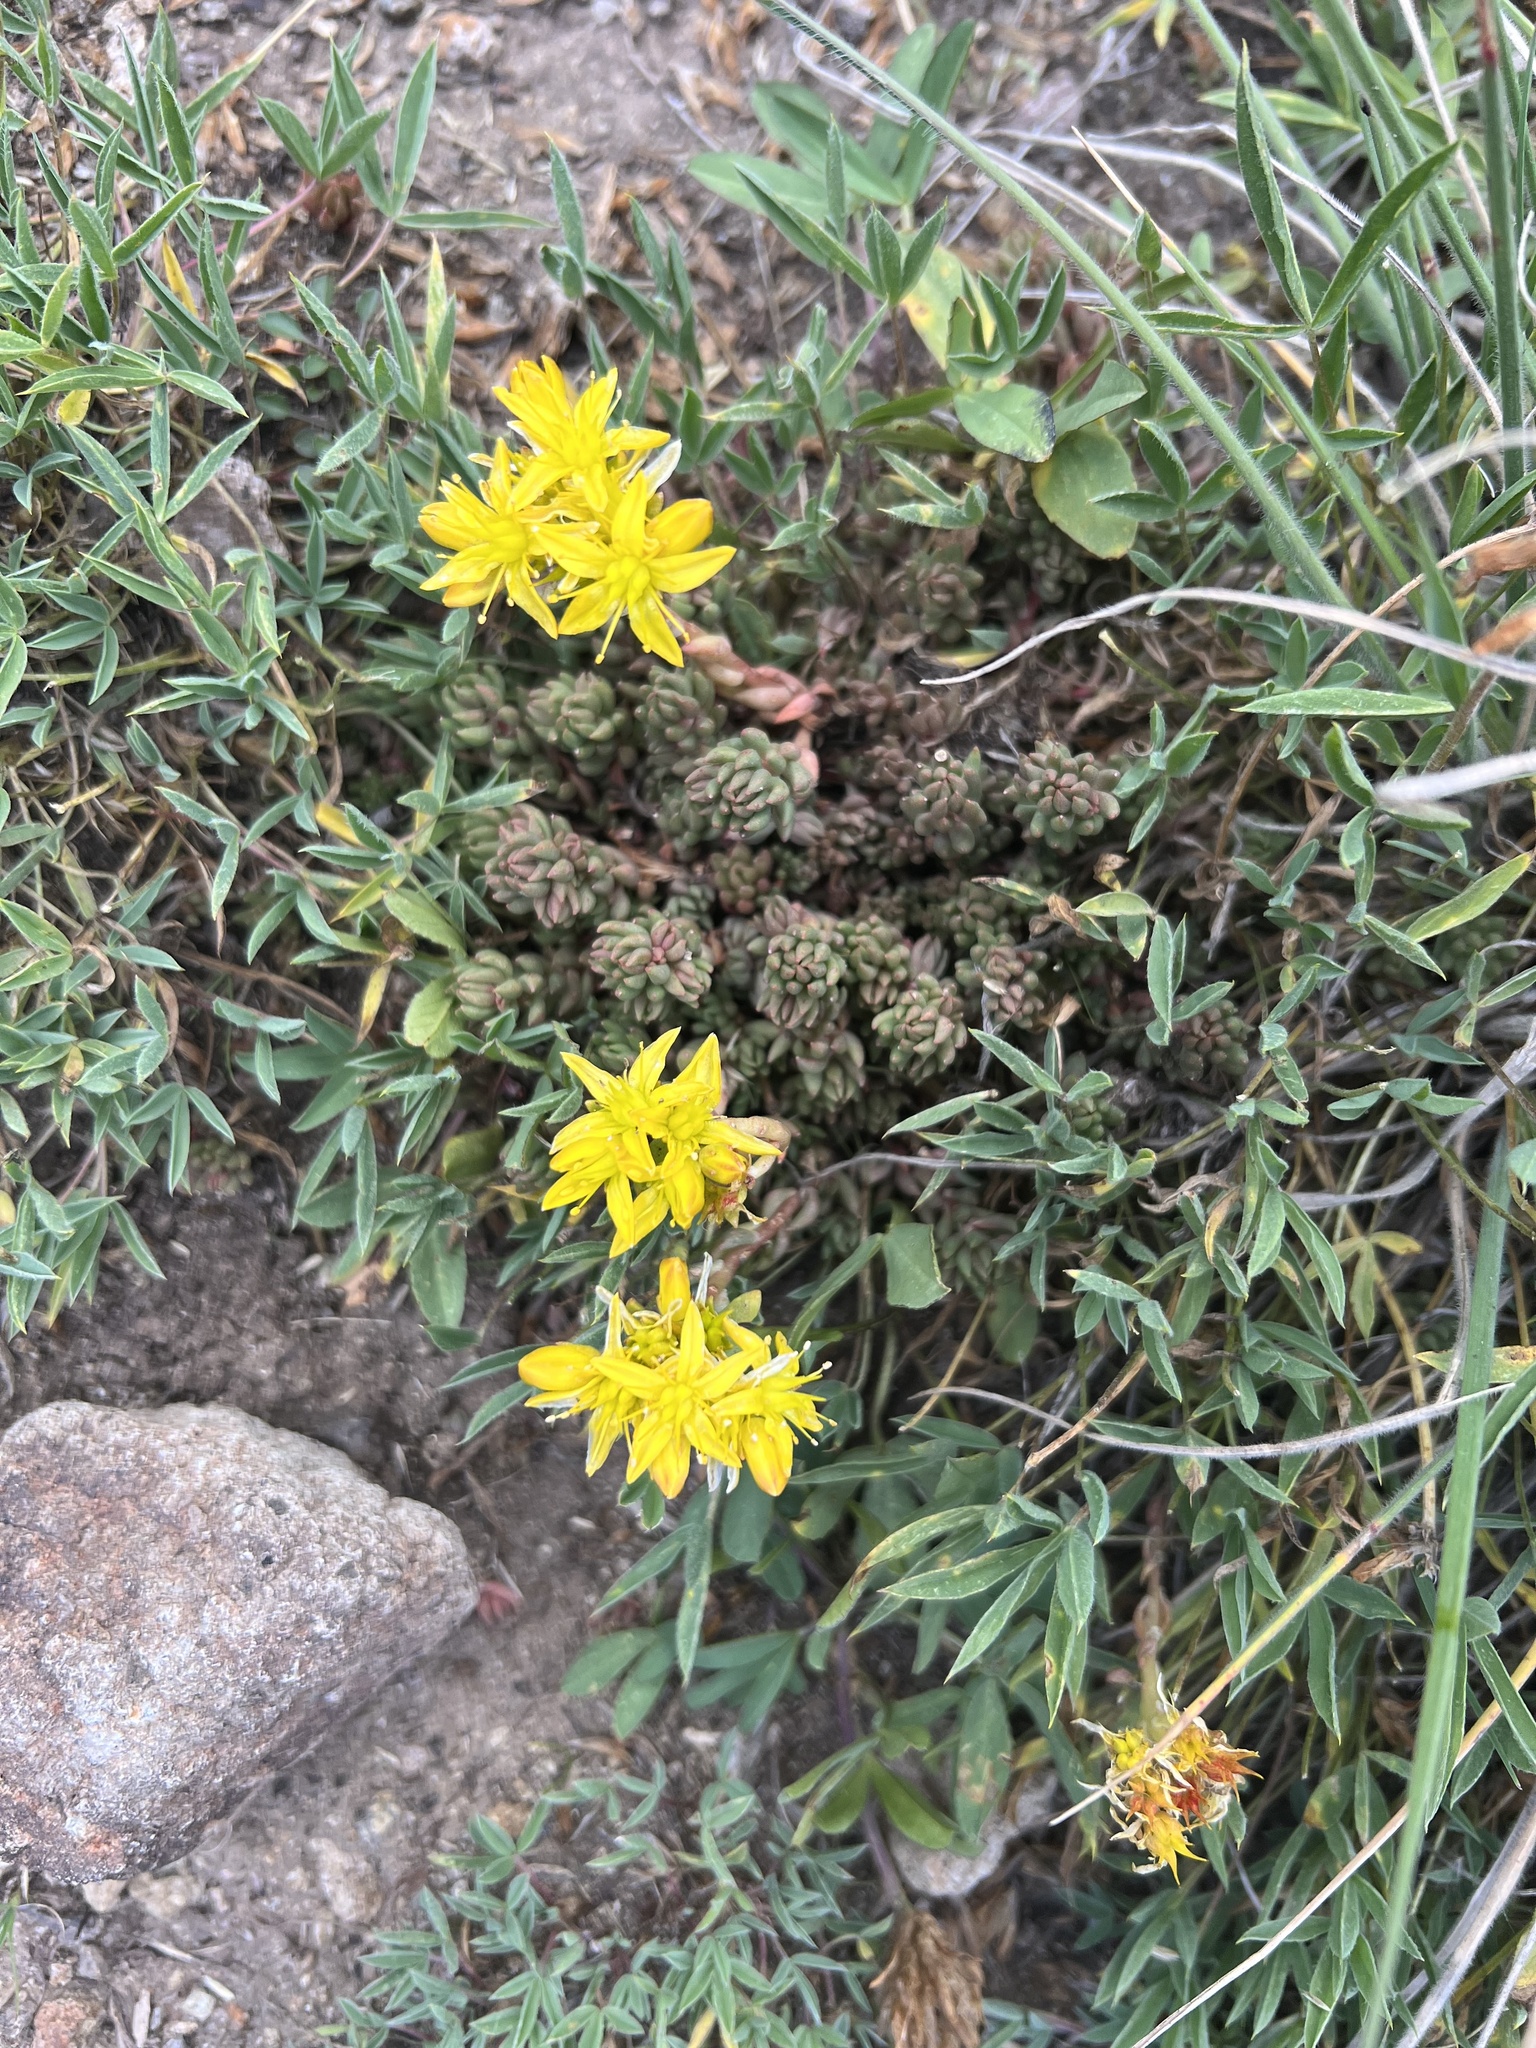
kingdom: Plantae
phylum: Tracheophyta
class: Magnoliopsida
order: Saxifragales
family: Crassulaceae
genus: Sedum
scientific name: Sedum lanceolatum
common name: Common stonecrop
